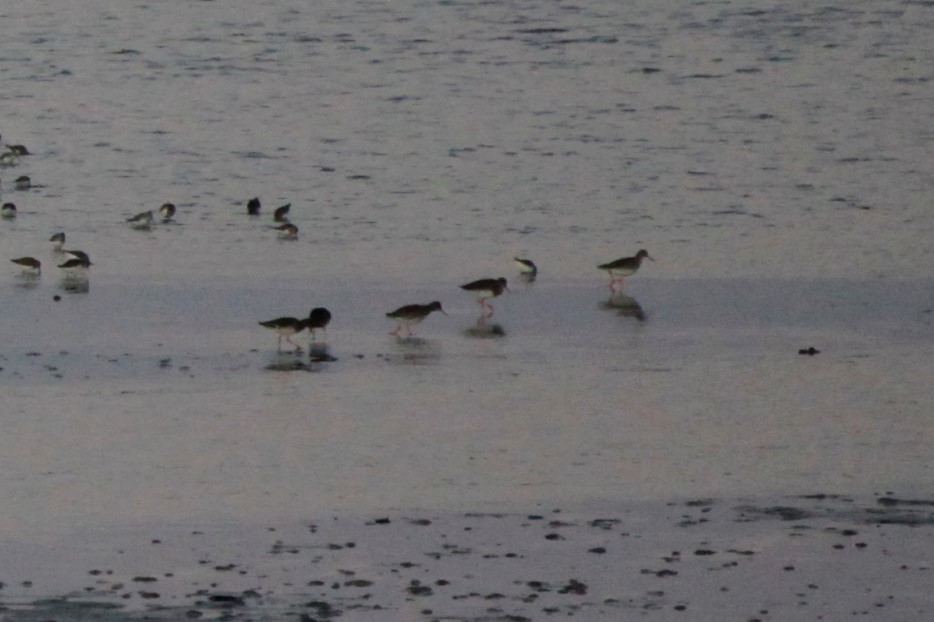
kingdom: Animalia
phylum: Chordata
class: Aves
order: Charadriiformes
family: Scolopacidae
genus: Tringa
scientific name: Tringa totanus
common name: Common redshank
